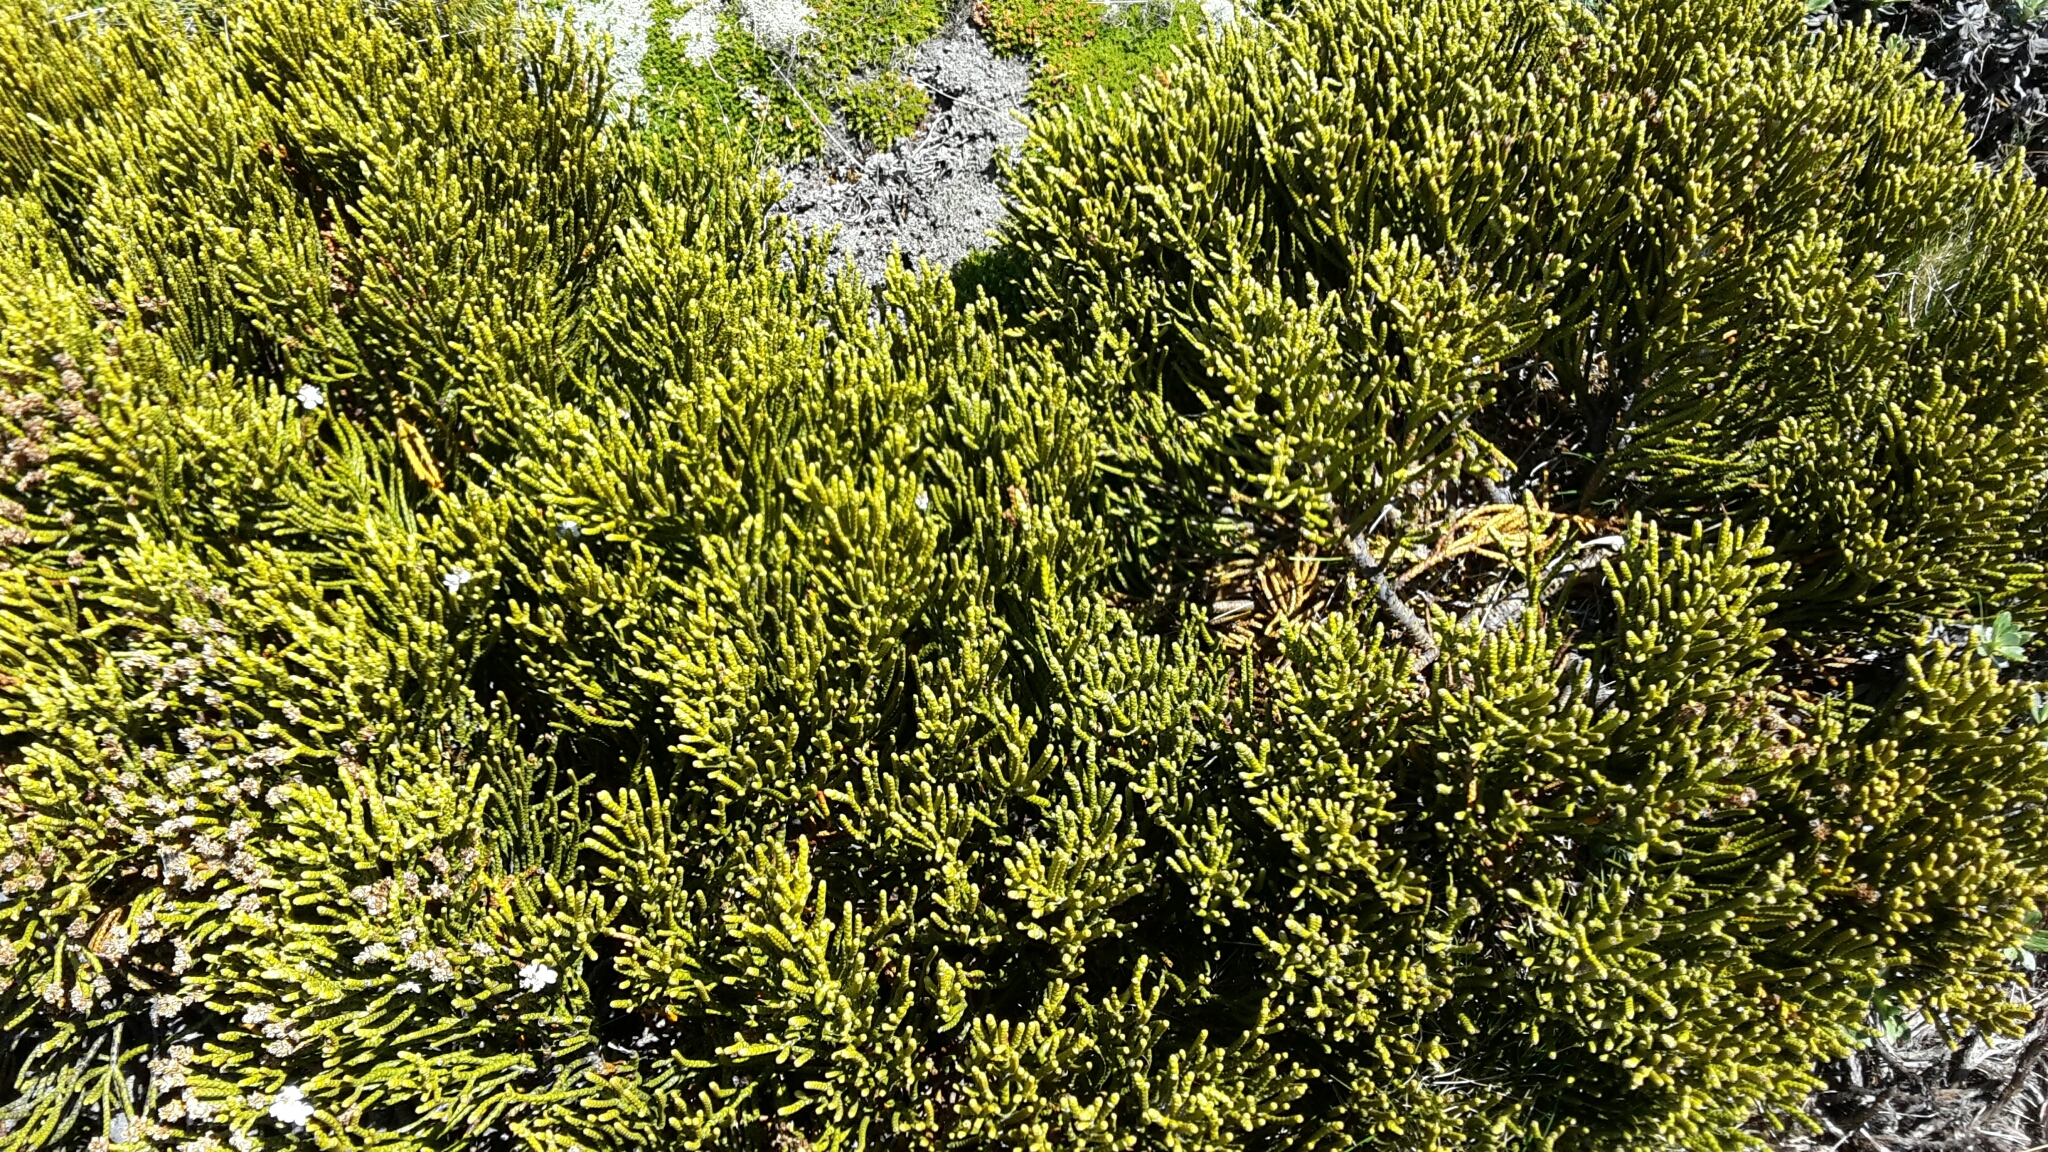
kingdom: Plantae
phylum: Tracheophyta
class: Magnoliopsida
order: Lamiales
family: Plantaginaceae
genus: Veronica
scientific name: Veronica hectorii
